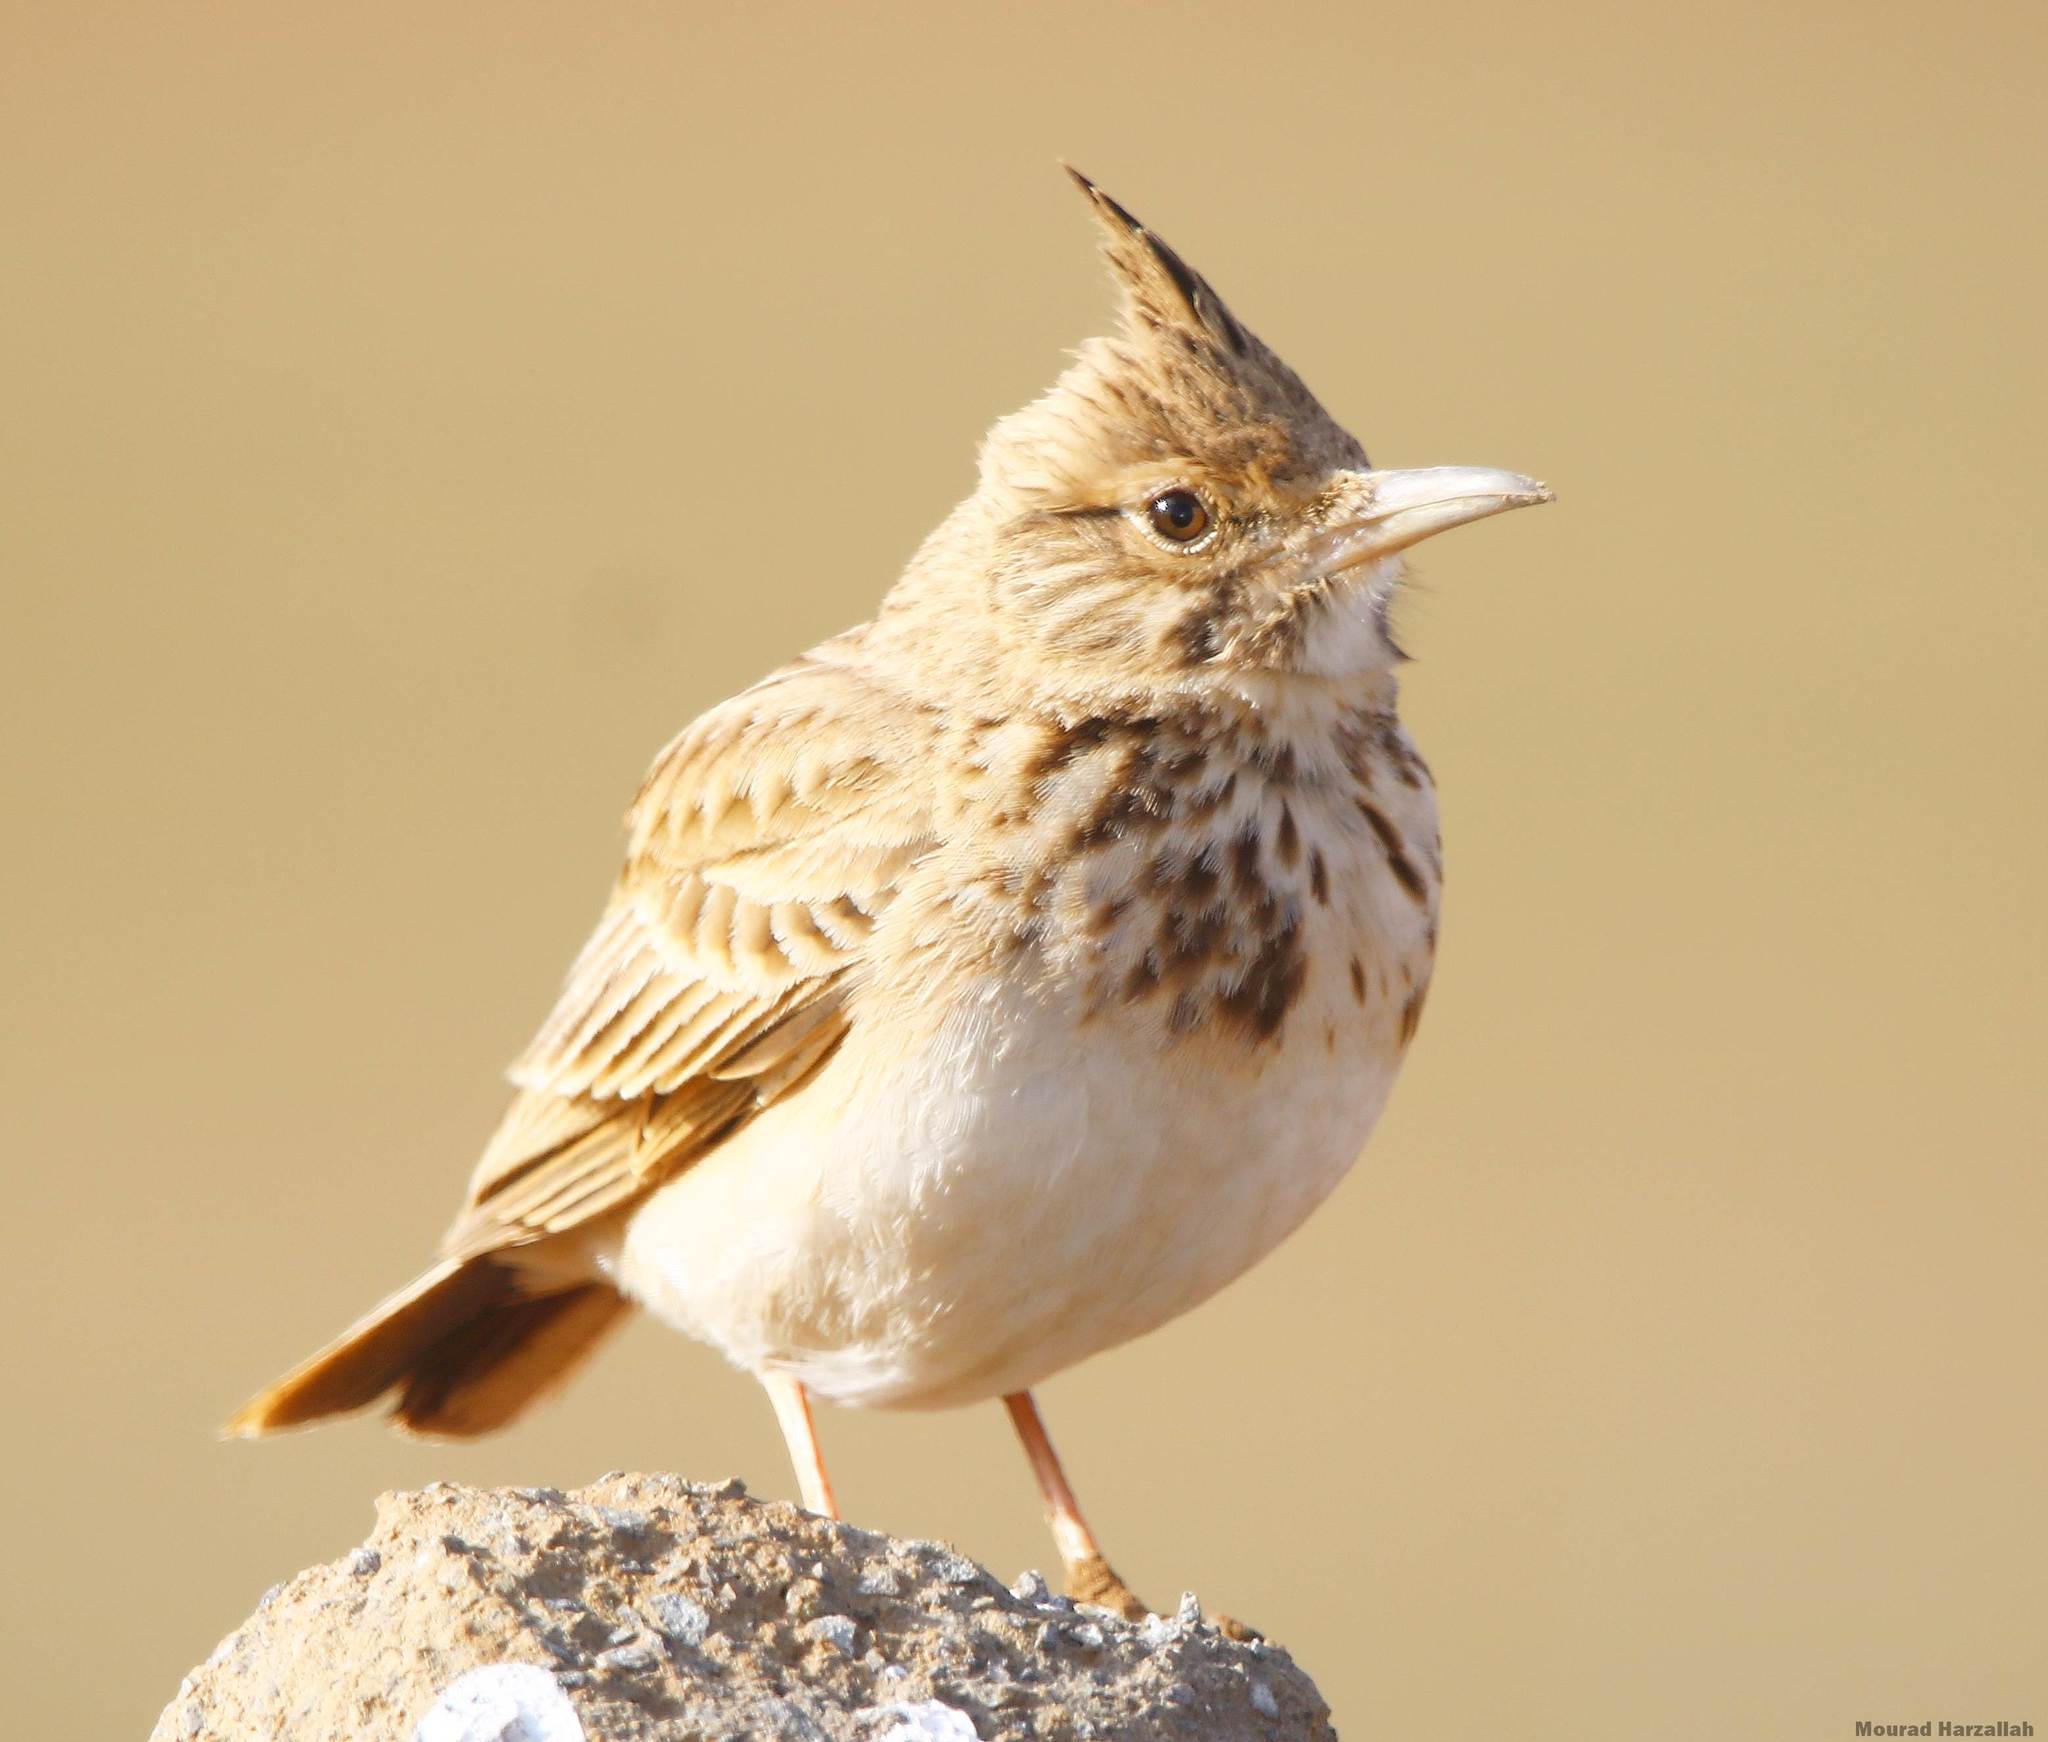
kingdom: Animalia
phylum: Chordata
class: Aves
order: Passeriformes
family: Alaudidae
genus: Galerida
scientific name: Galerida cristata
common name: Crested lark
